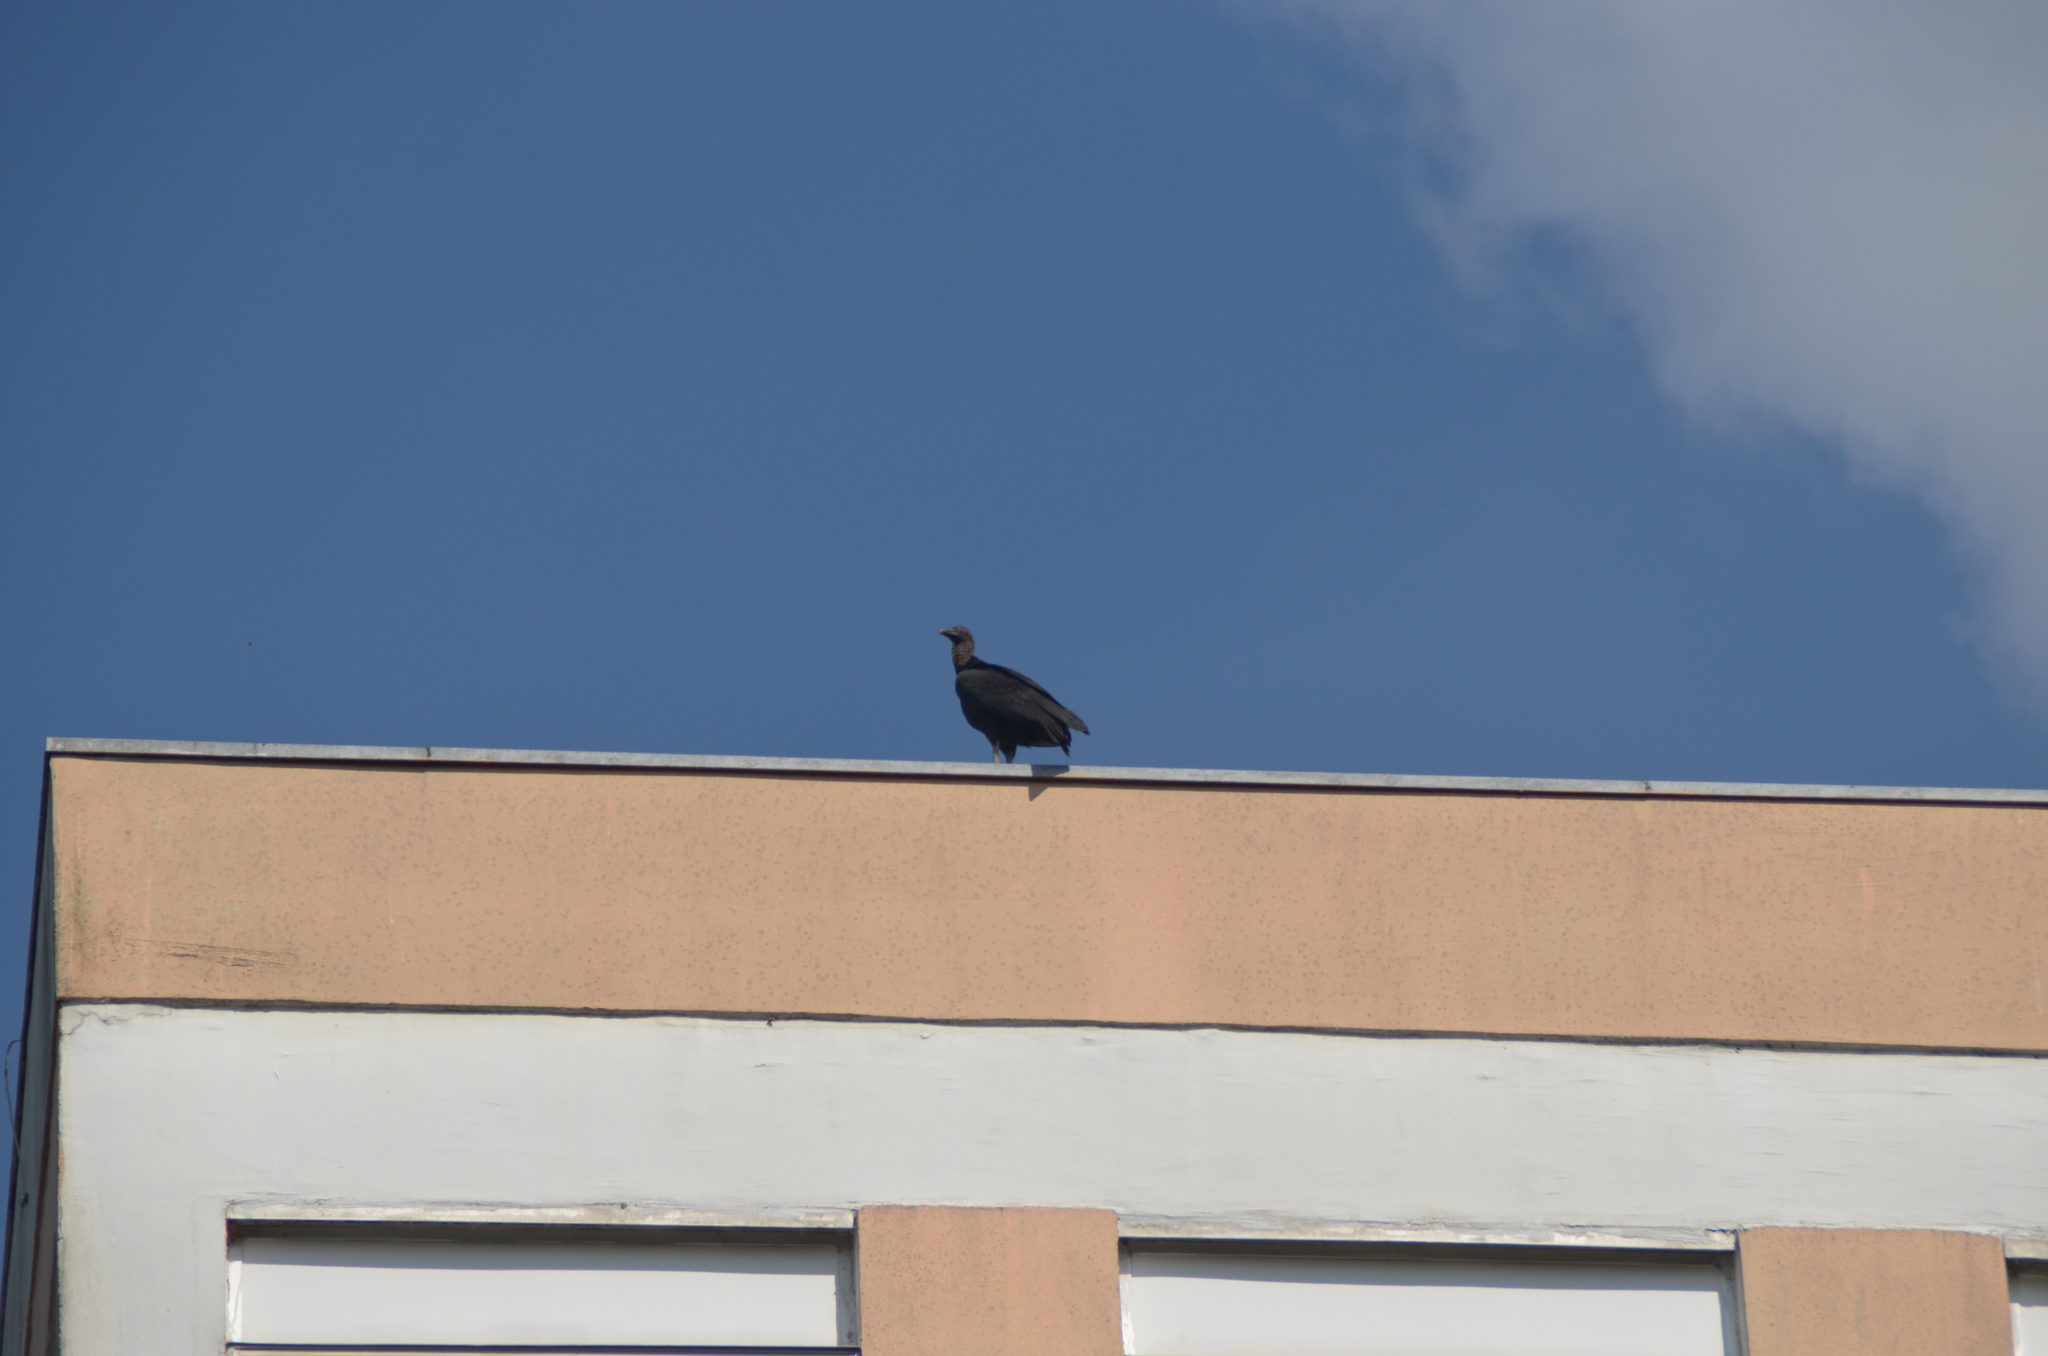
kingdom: Animalia
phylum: Chordata
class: Aves
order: Accipitriformes
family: Cathartidae
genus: Coragyps
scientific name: Coragyps atratus
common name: Black vulture
